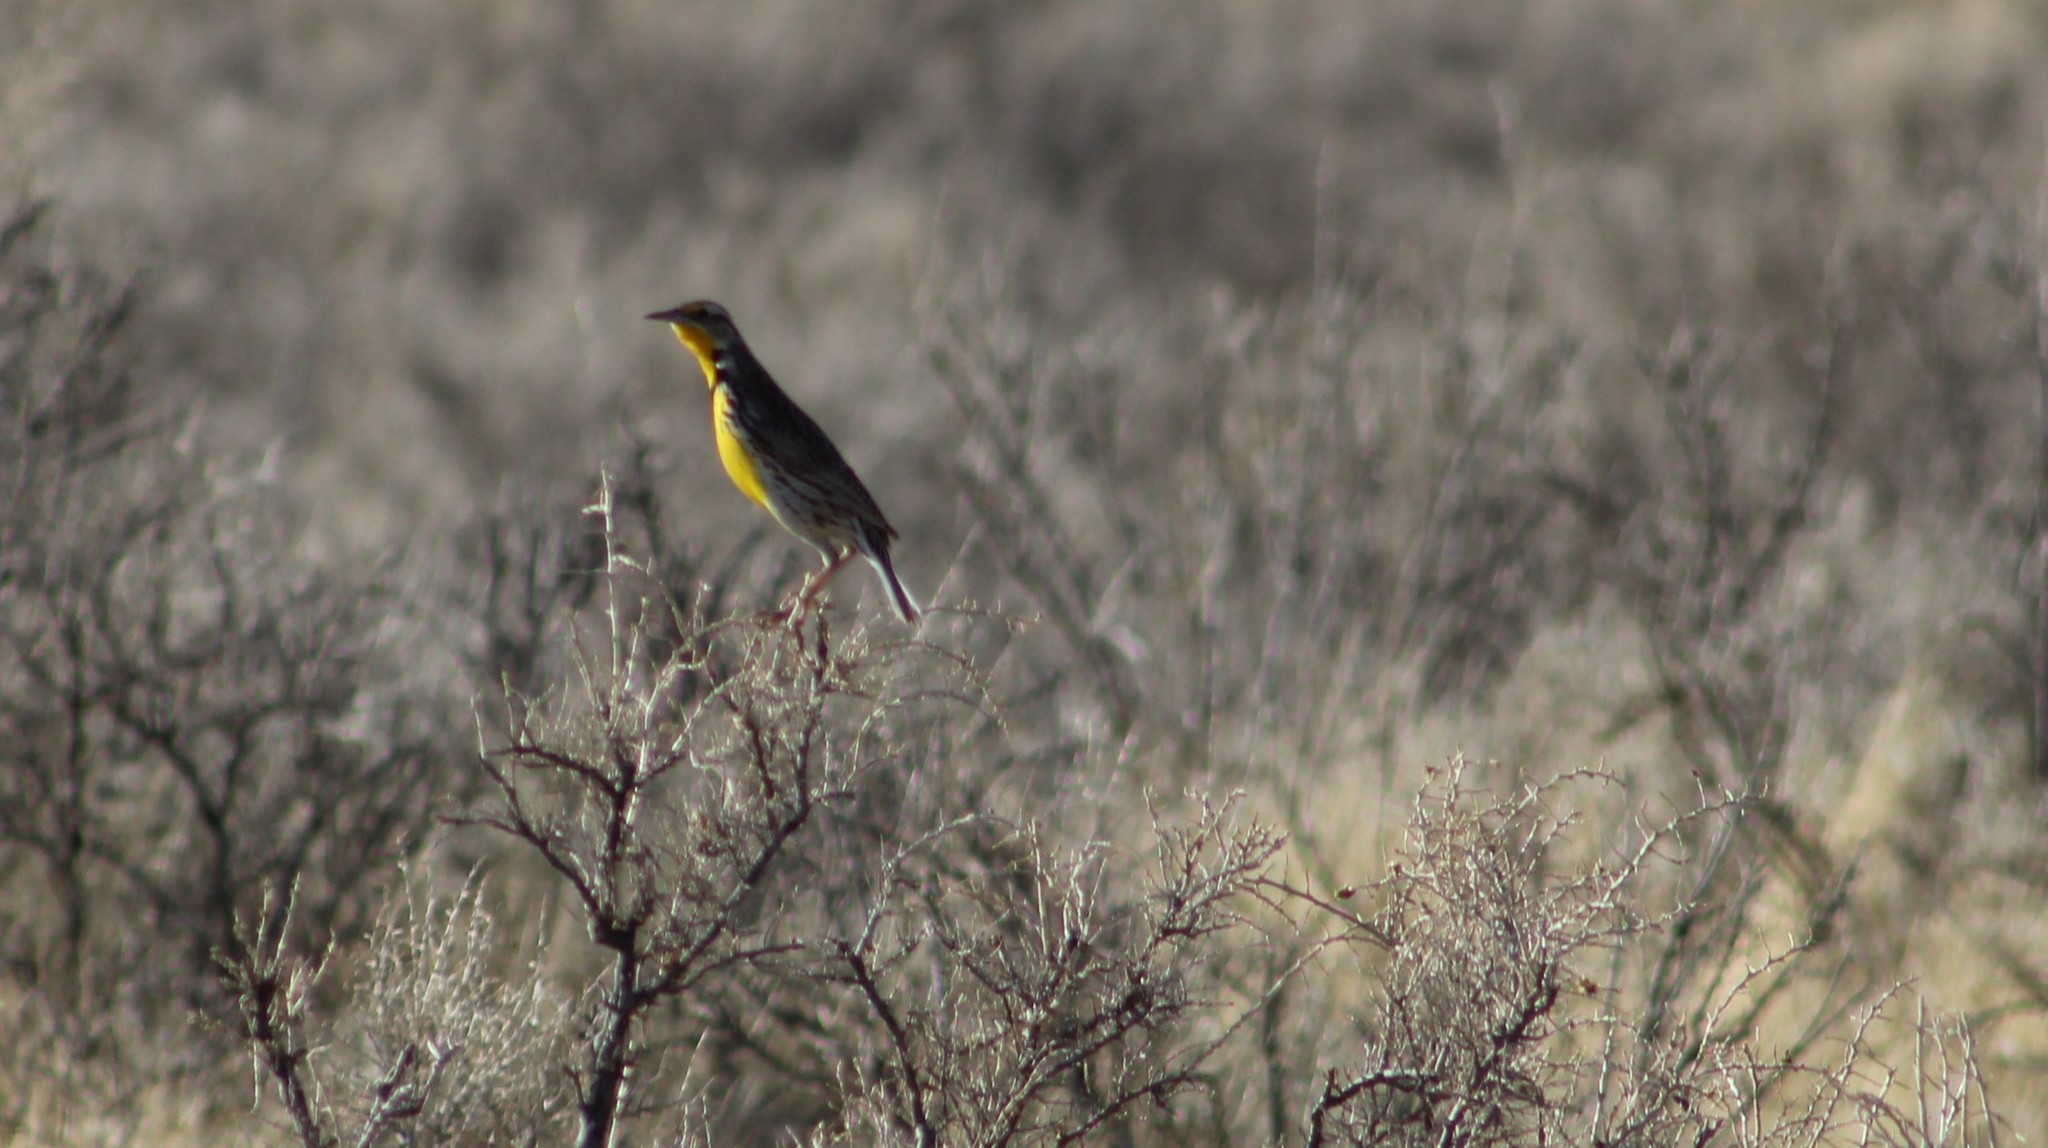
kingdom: Animalia
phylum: Chordata
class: Aves
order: Passeriformes
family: Icteridae
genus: Sturnella
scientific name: Sturnella neglecta
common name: Western meadowlark
